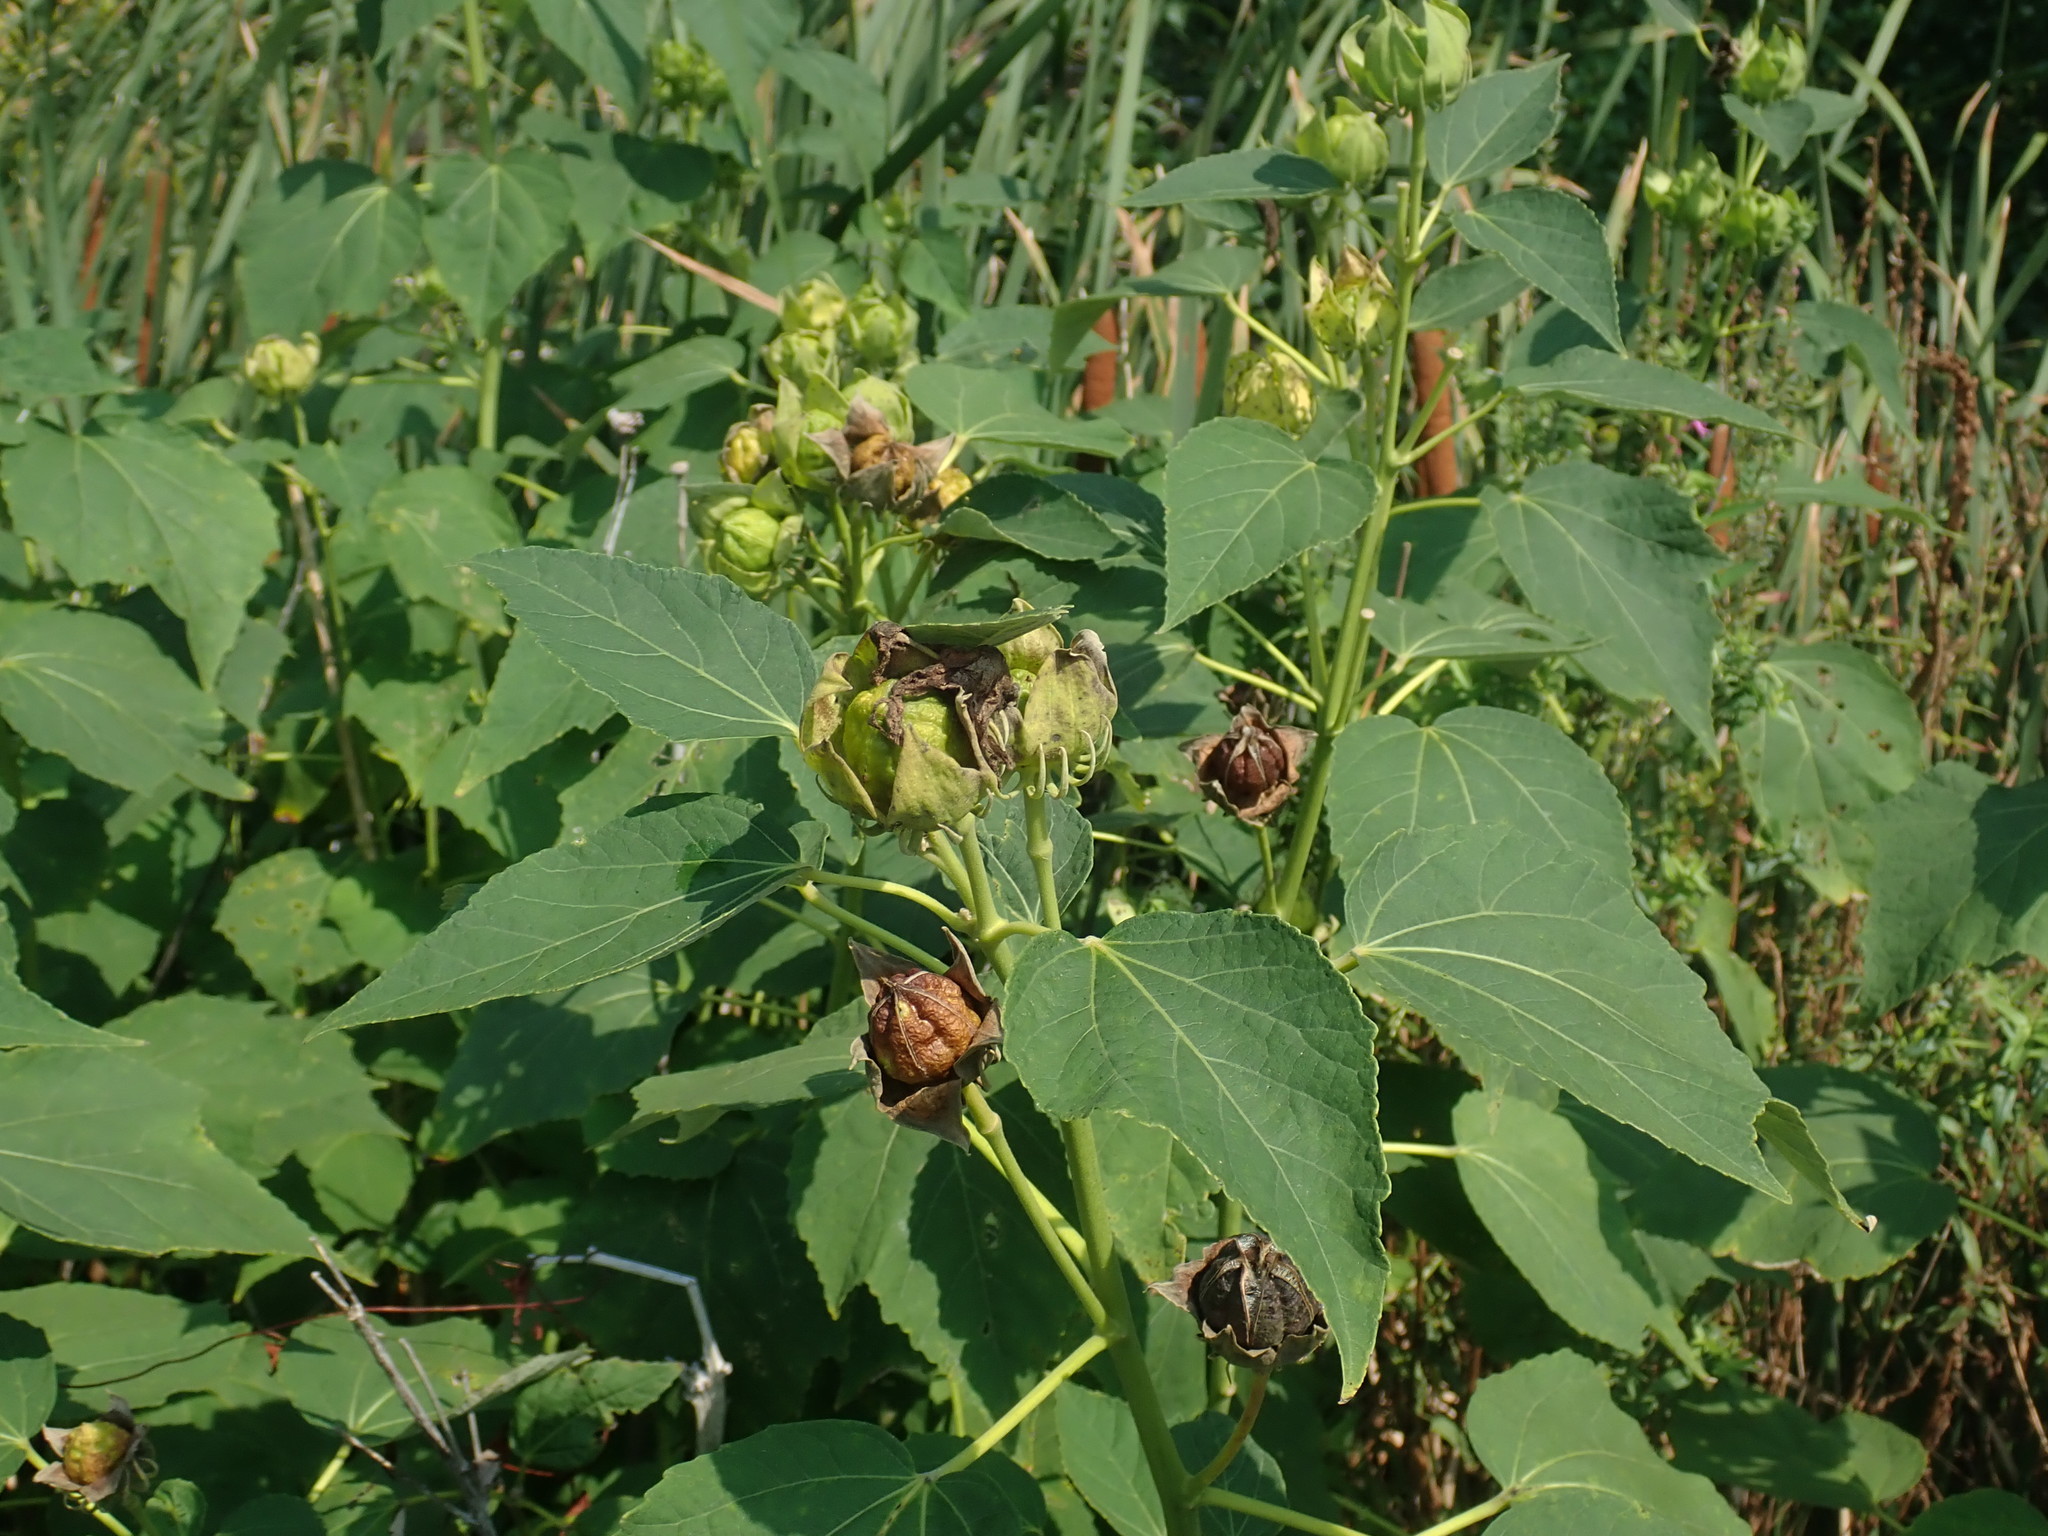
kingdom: Plantae
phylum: Tracheophyta
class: Magnoliopsida
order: Malvales
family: Malvaceae
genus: Hibiscus
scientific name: Hibiscus moscheutos
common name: Common rose-mallow
